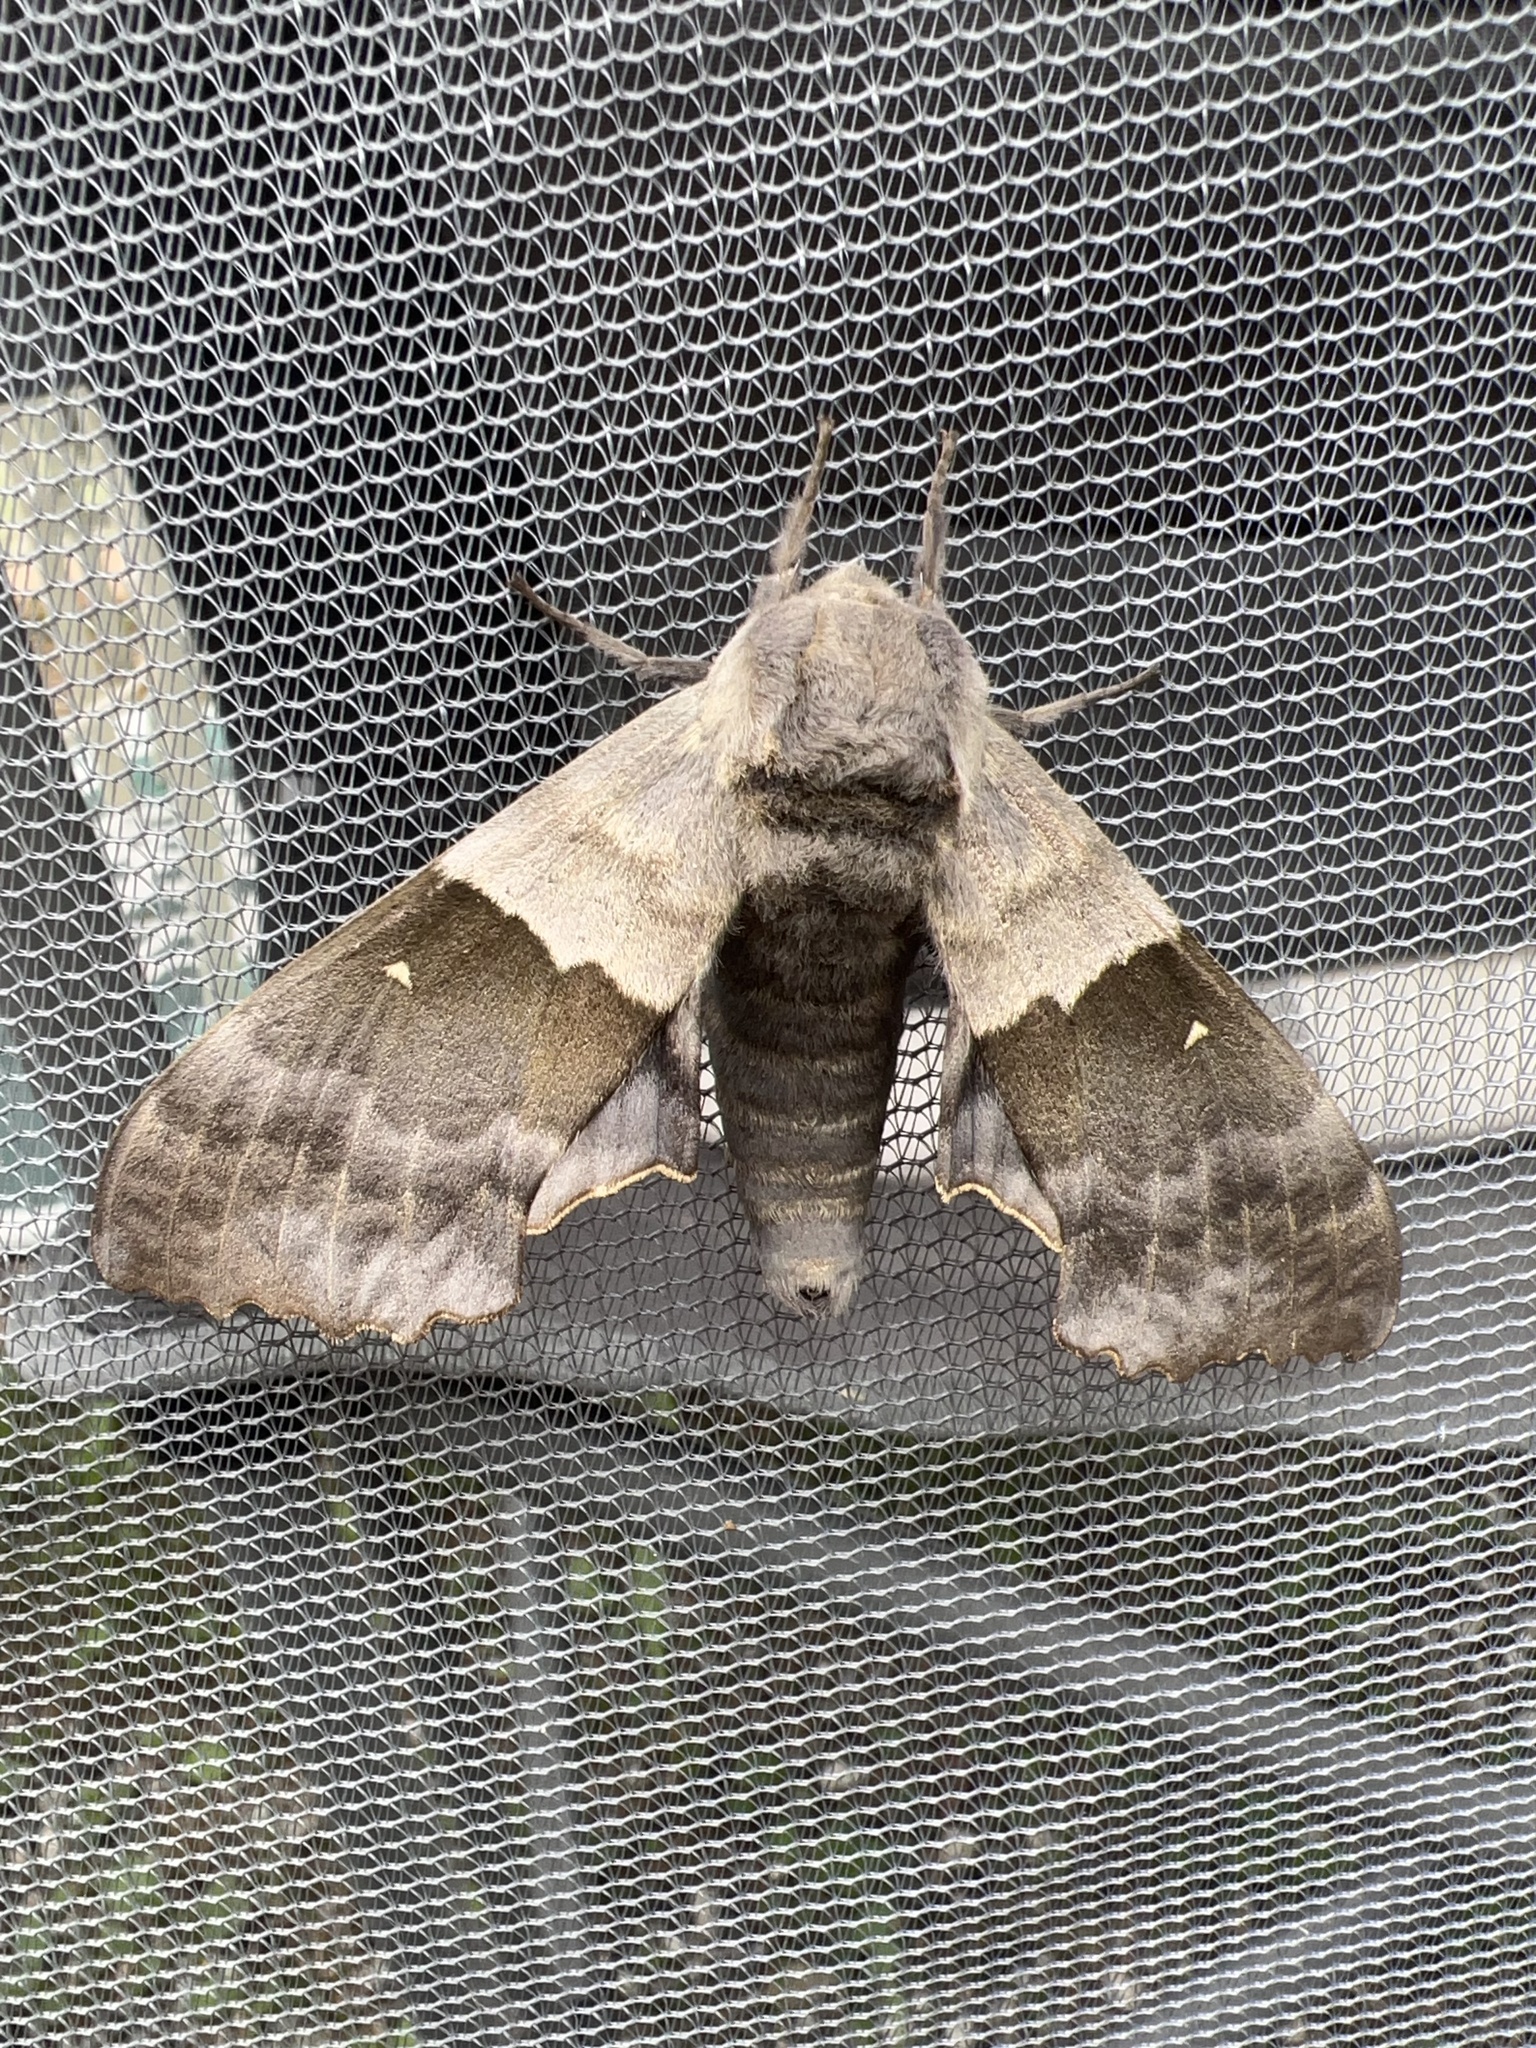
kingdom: Animalia
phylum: Arthropoda
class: Insecta
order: Lepidoptera
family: Sphingidae
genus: Pachysphinx
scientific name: Pachysphinx modesta
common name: Big poplar sphinx
